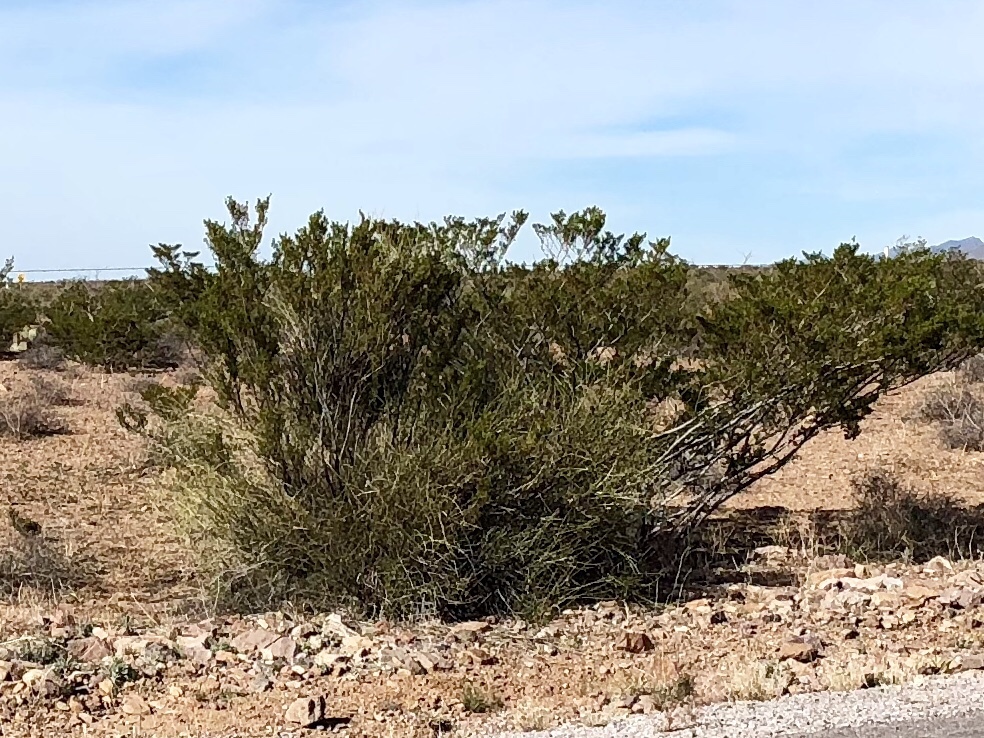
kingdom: Plantae
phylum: Tracheophyta
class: Magnoliopsida
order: Zygophyllales
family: Zygophyllaceae
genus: Larrea
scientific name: Larrea tridentata
